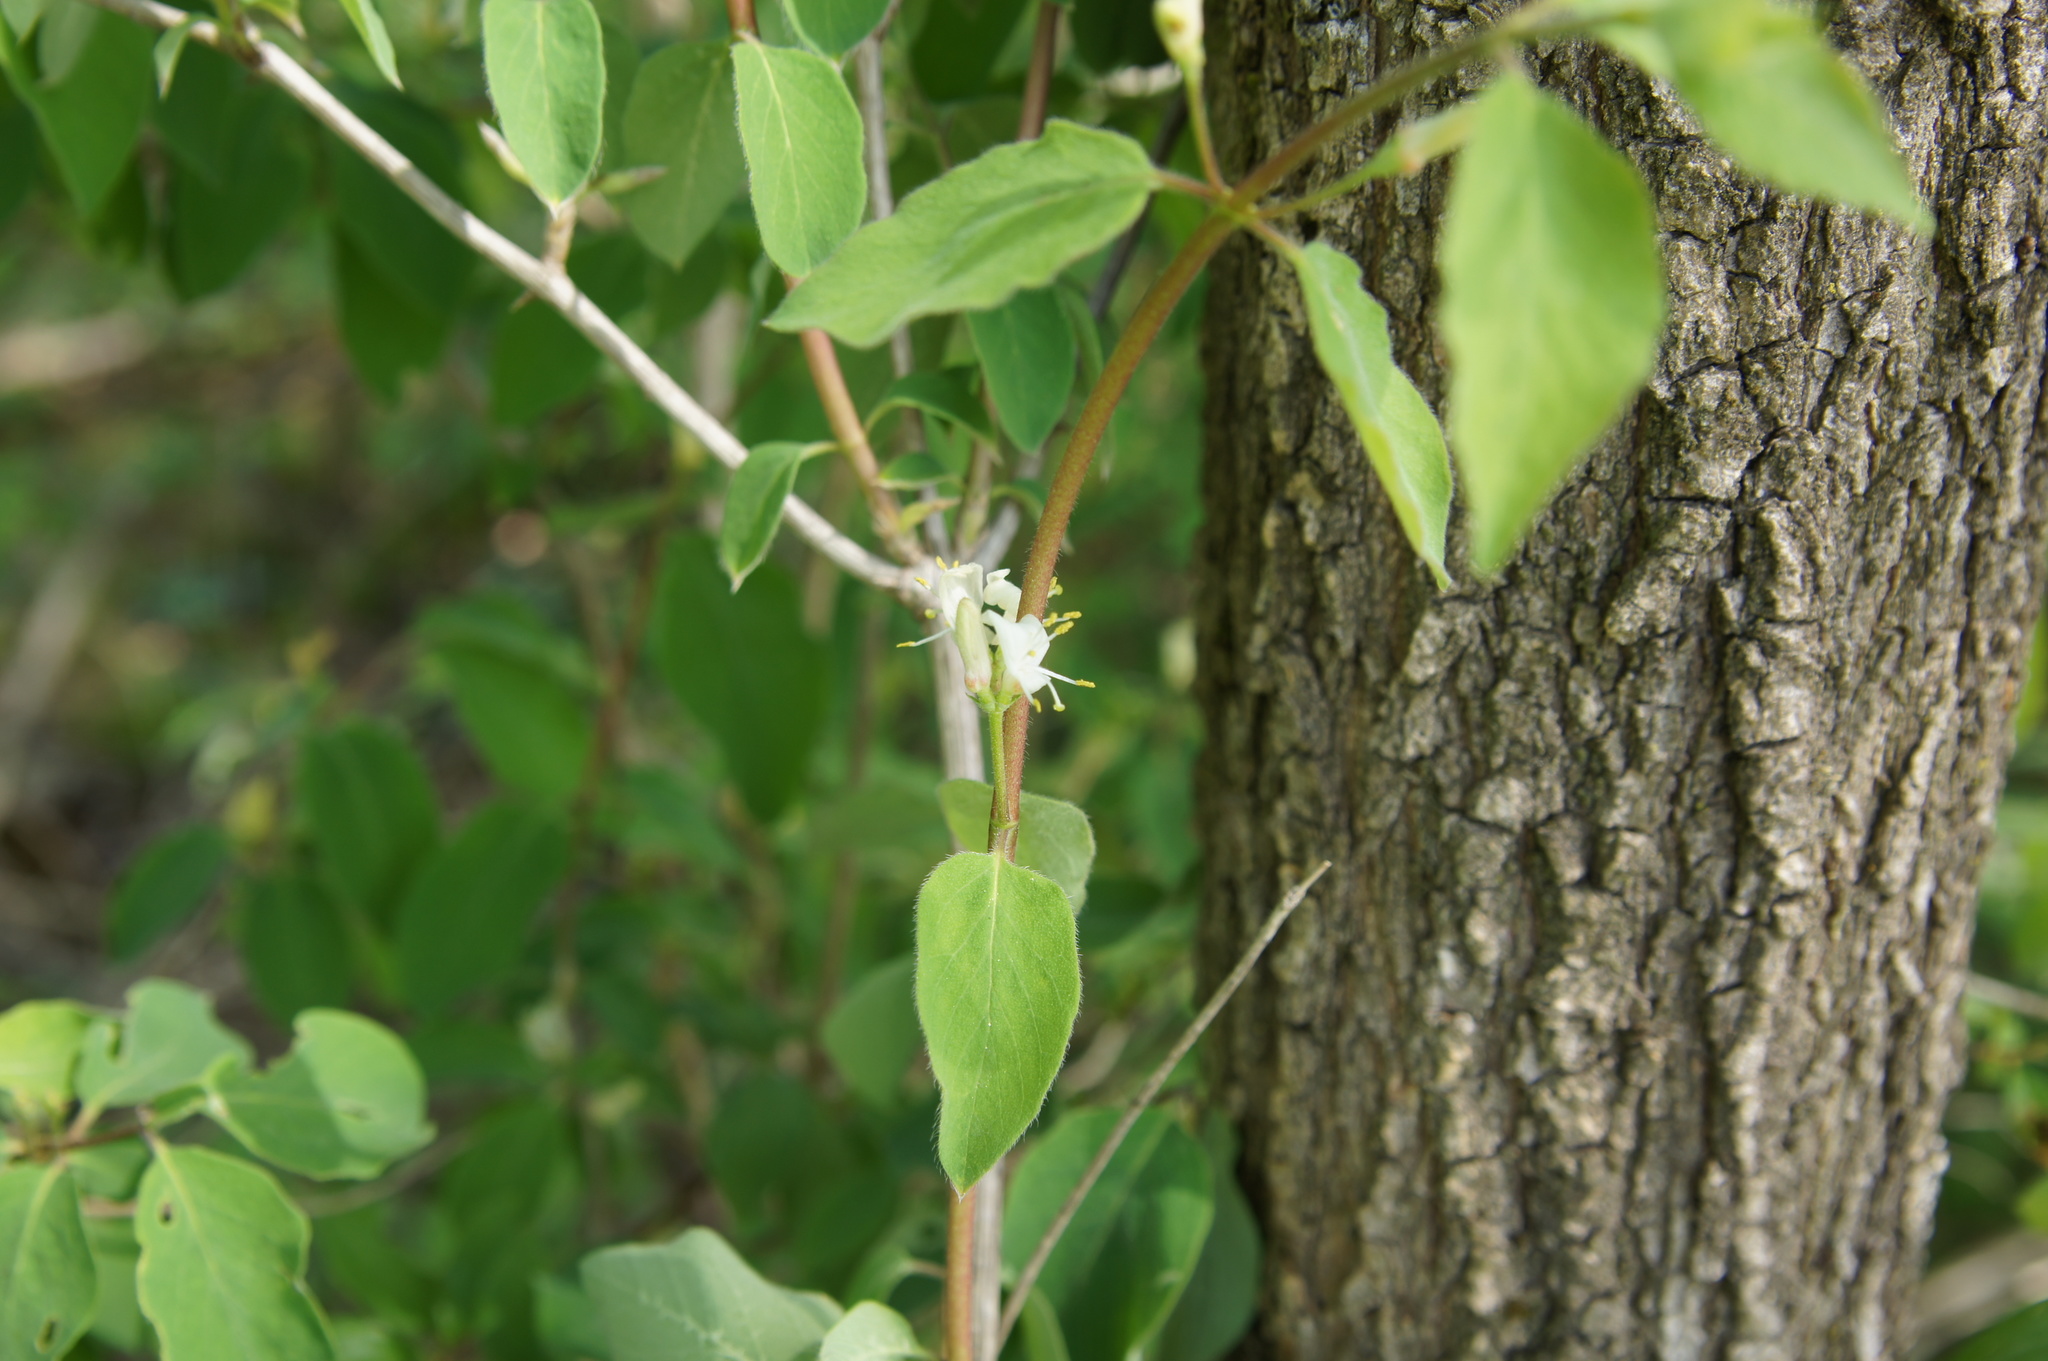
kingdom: Plantae
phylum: Tracheophyta
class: Magnoliopsida
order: Dipsacales
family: Caprifoliaceae
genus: Lonicera
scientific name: Lonicera xylosteum
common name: Fly honeysuckle
